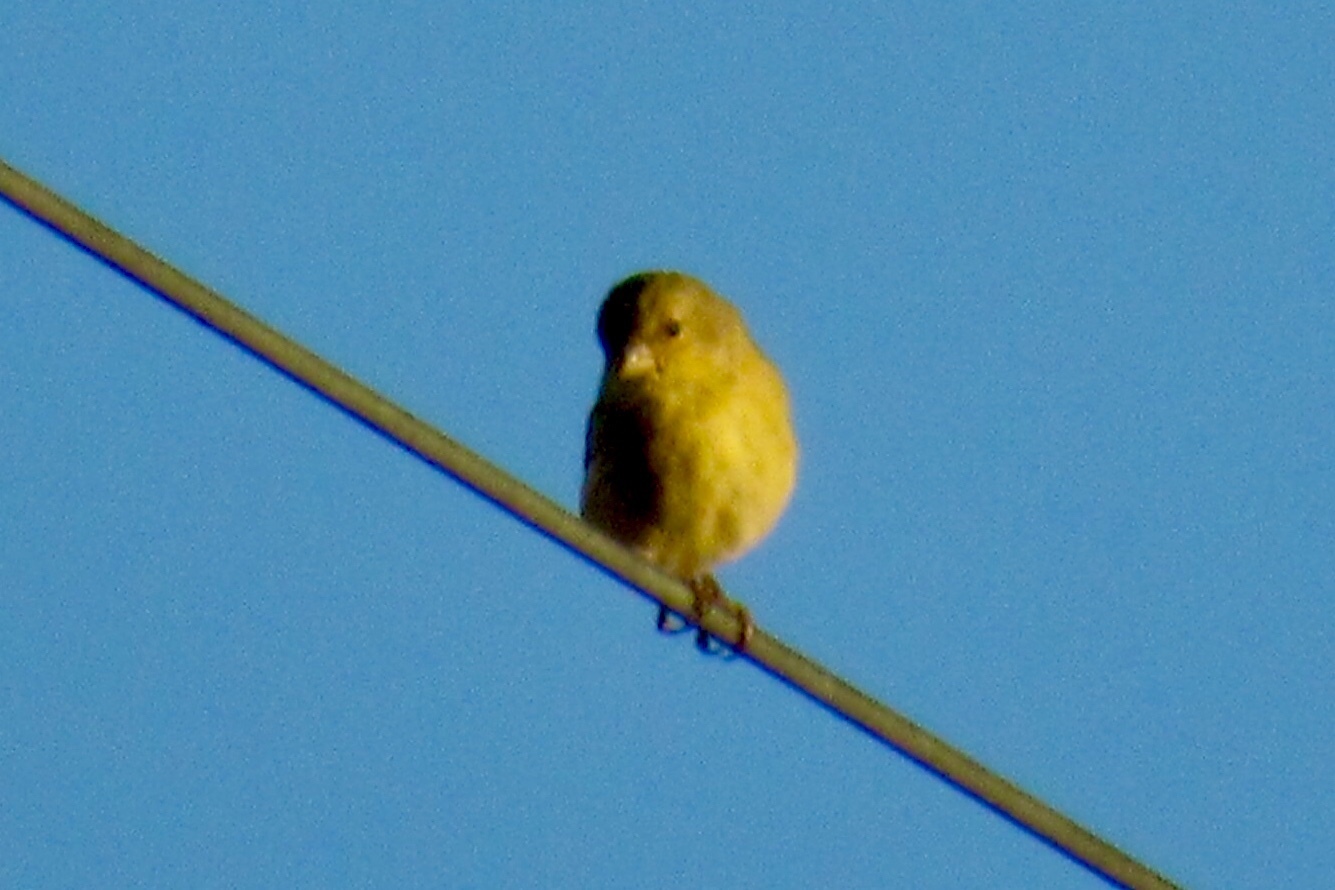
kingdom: Animalia
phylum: Chordata
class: Aves
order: Passeriformes
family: Fringillidae
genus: Spinus
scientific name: Spinus psaltria
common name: Lesser goldfinch
